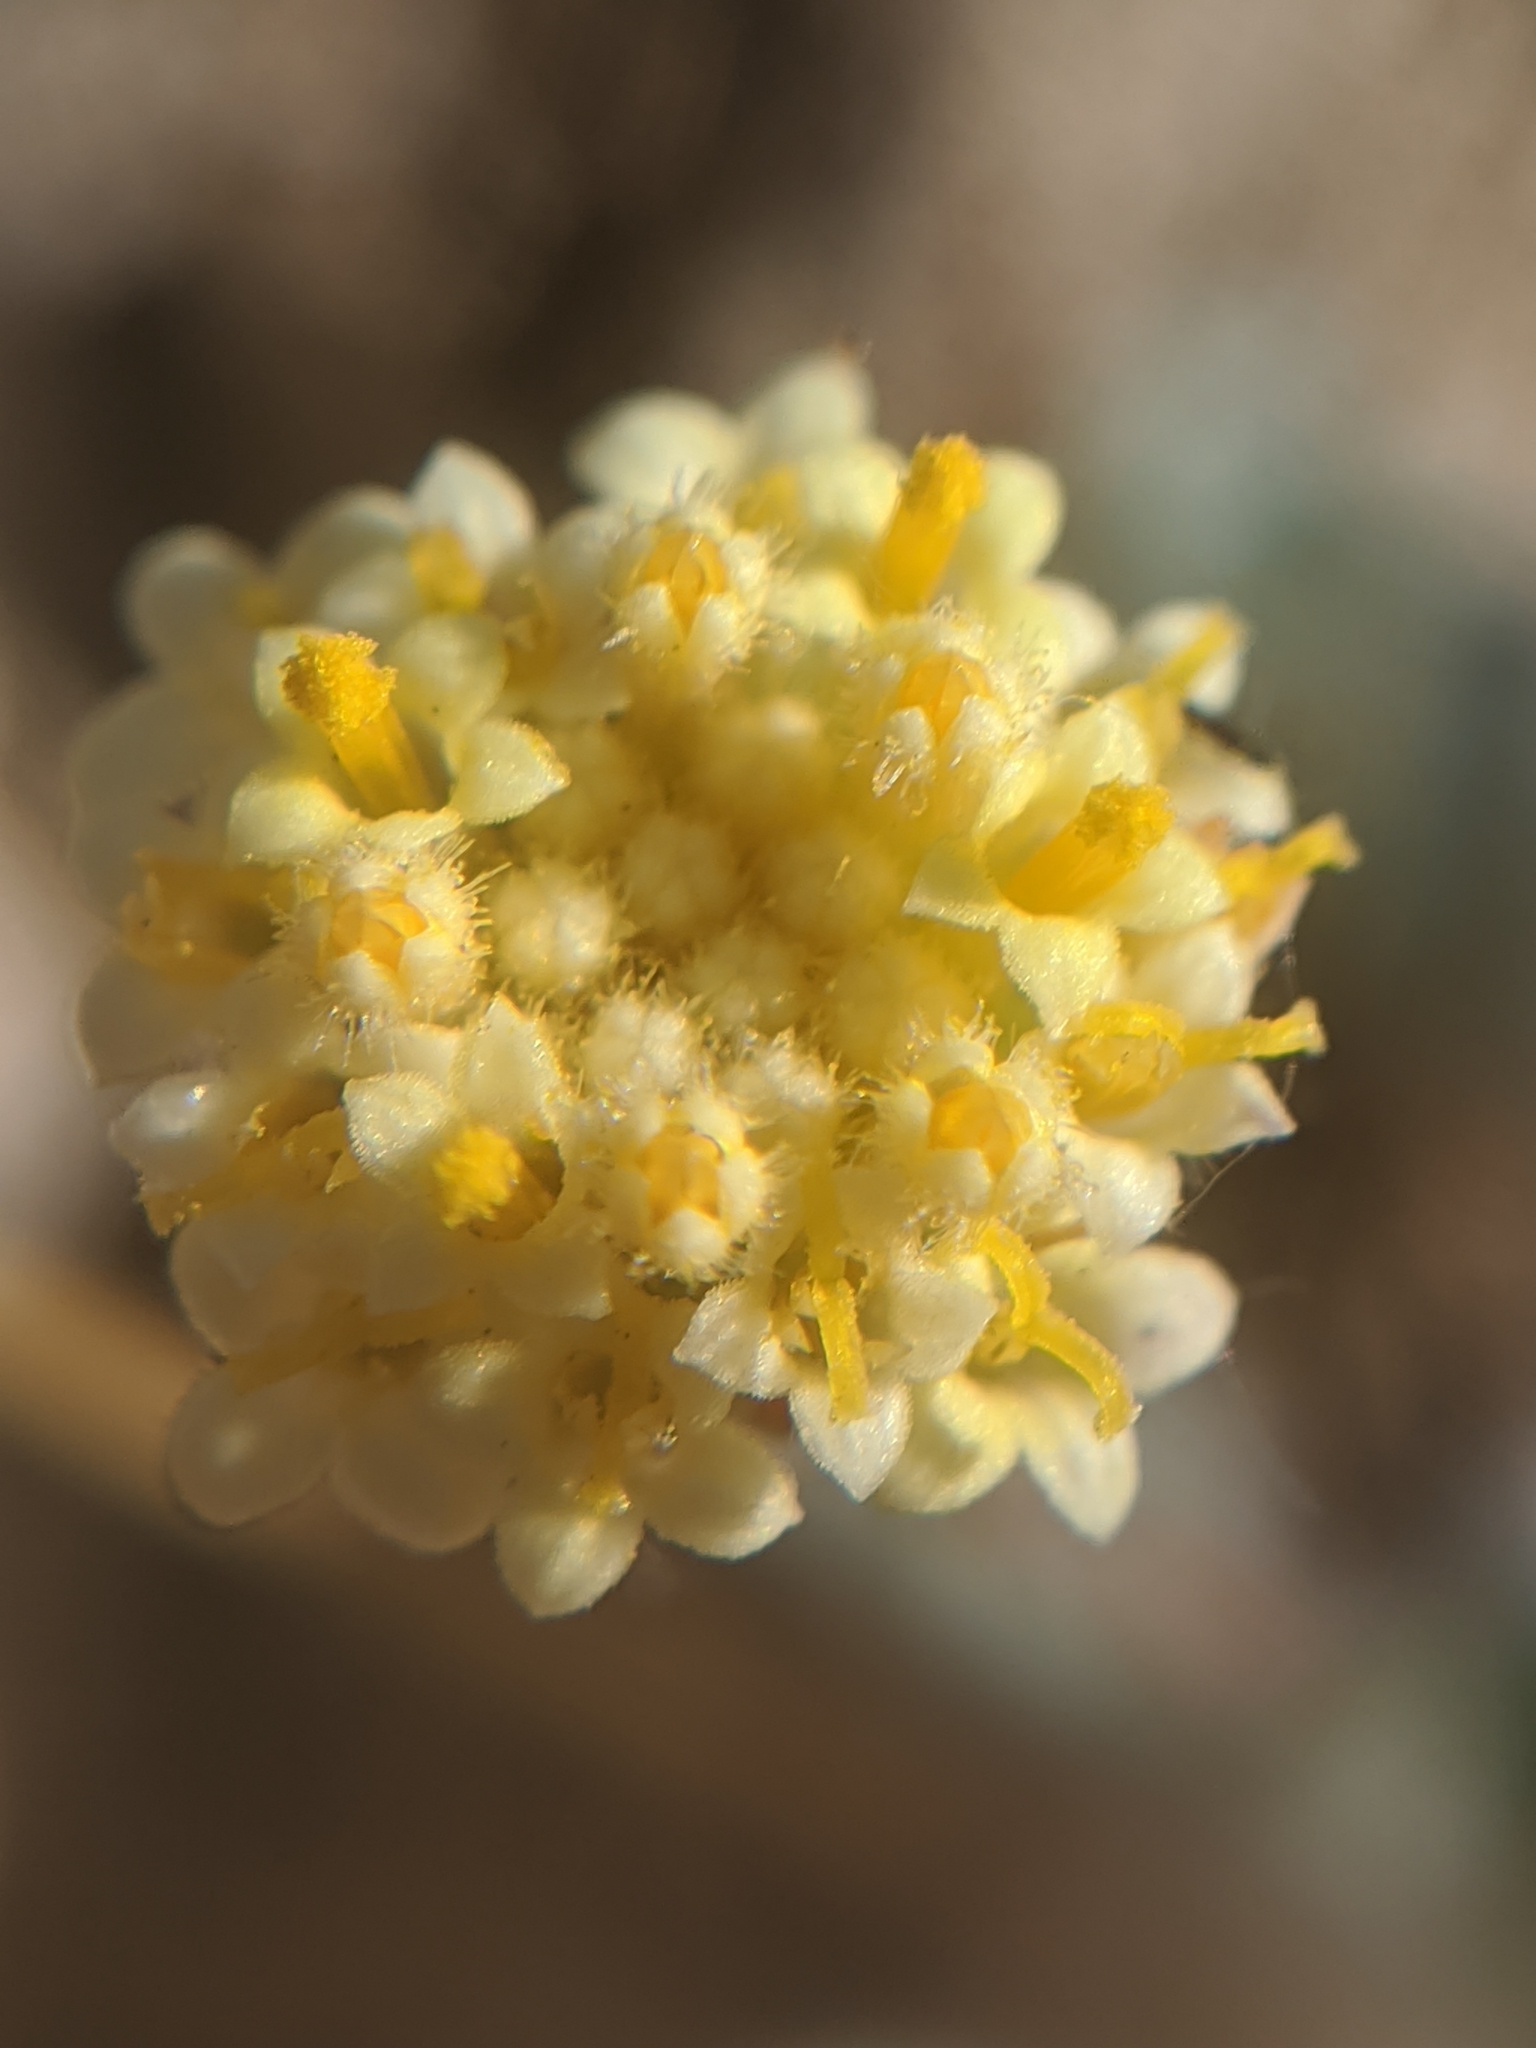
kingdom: Plantae
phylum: Tracheophyta
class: Magnoliopsida
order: Asterales
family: Asteraceae
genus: Trichoptilium
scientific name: Trichoptilium incisum
